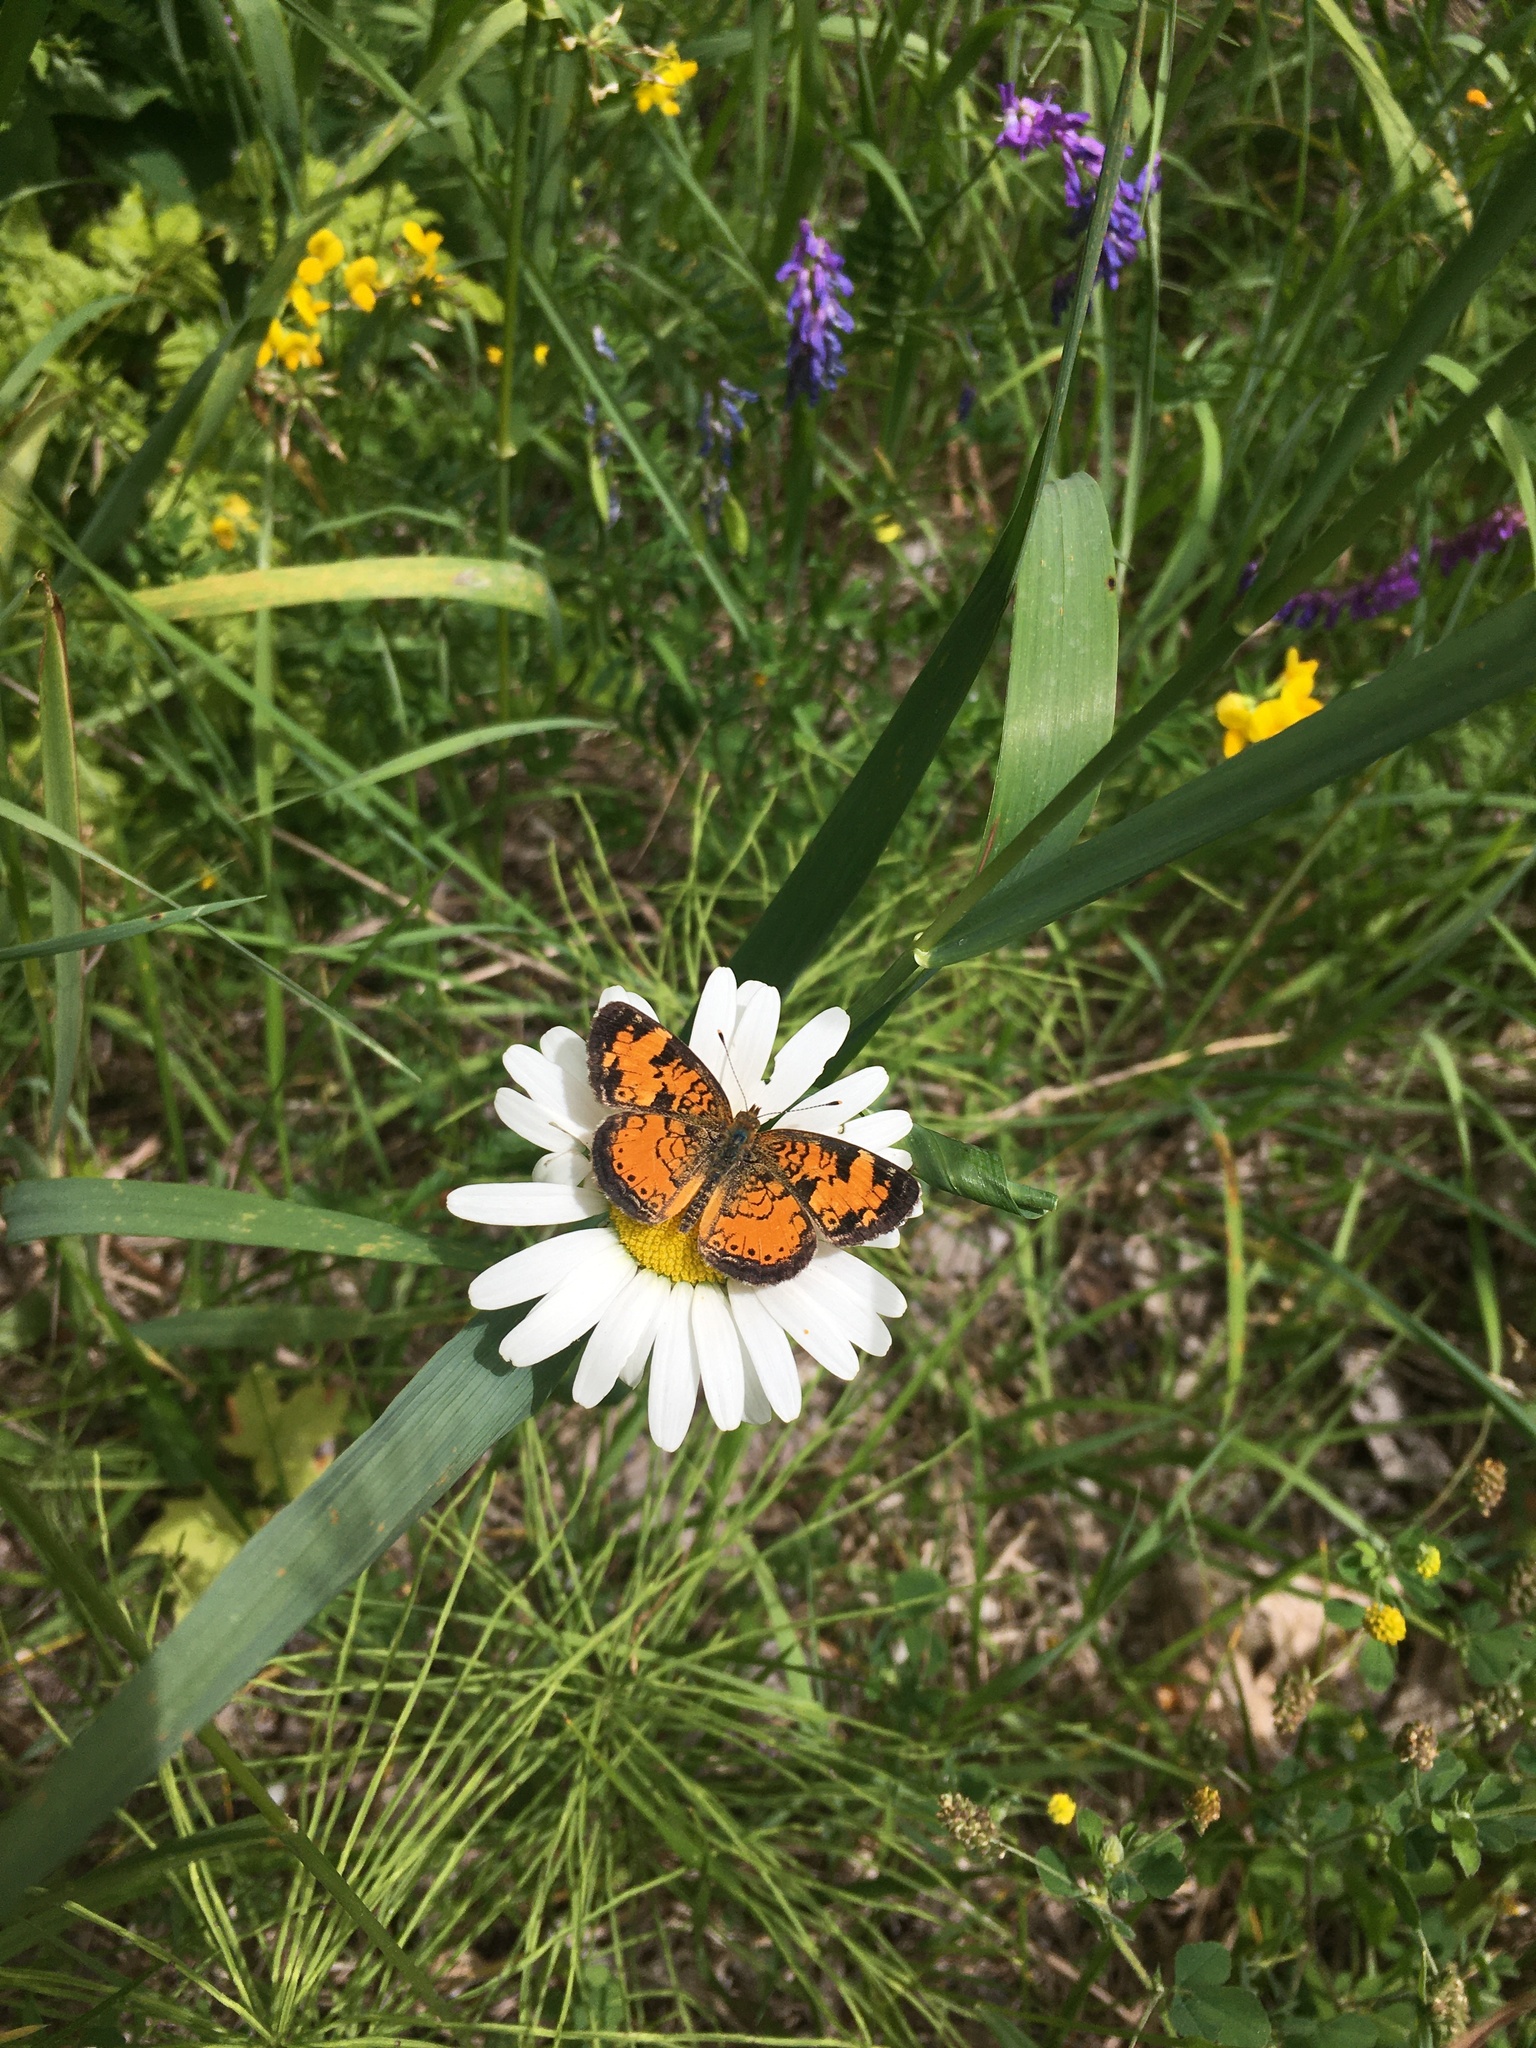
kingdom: Animalia
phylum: Arthropoda
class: Insecta
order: Lepidoptera
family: Nymphalidae
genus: Phyciodes
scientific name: Phyciodes tharos
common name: Pearl crescent
